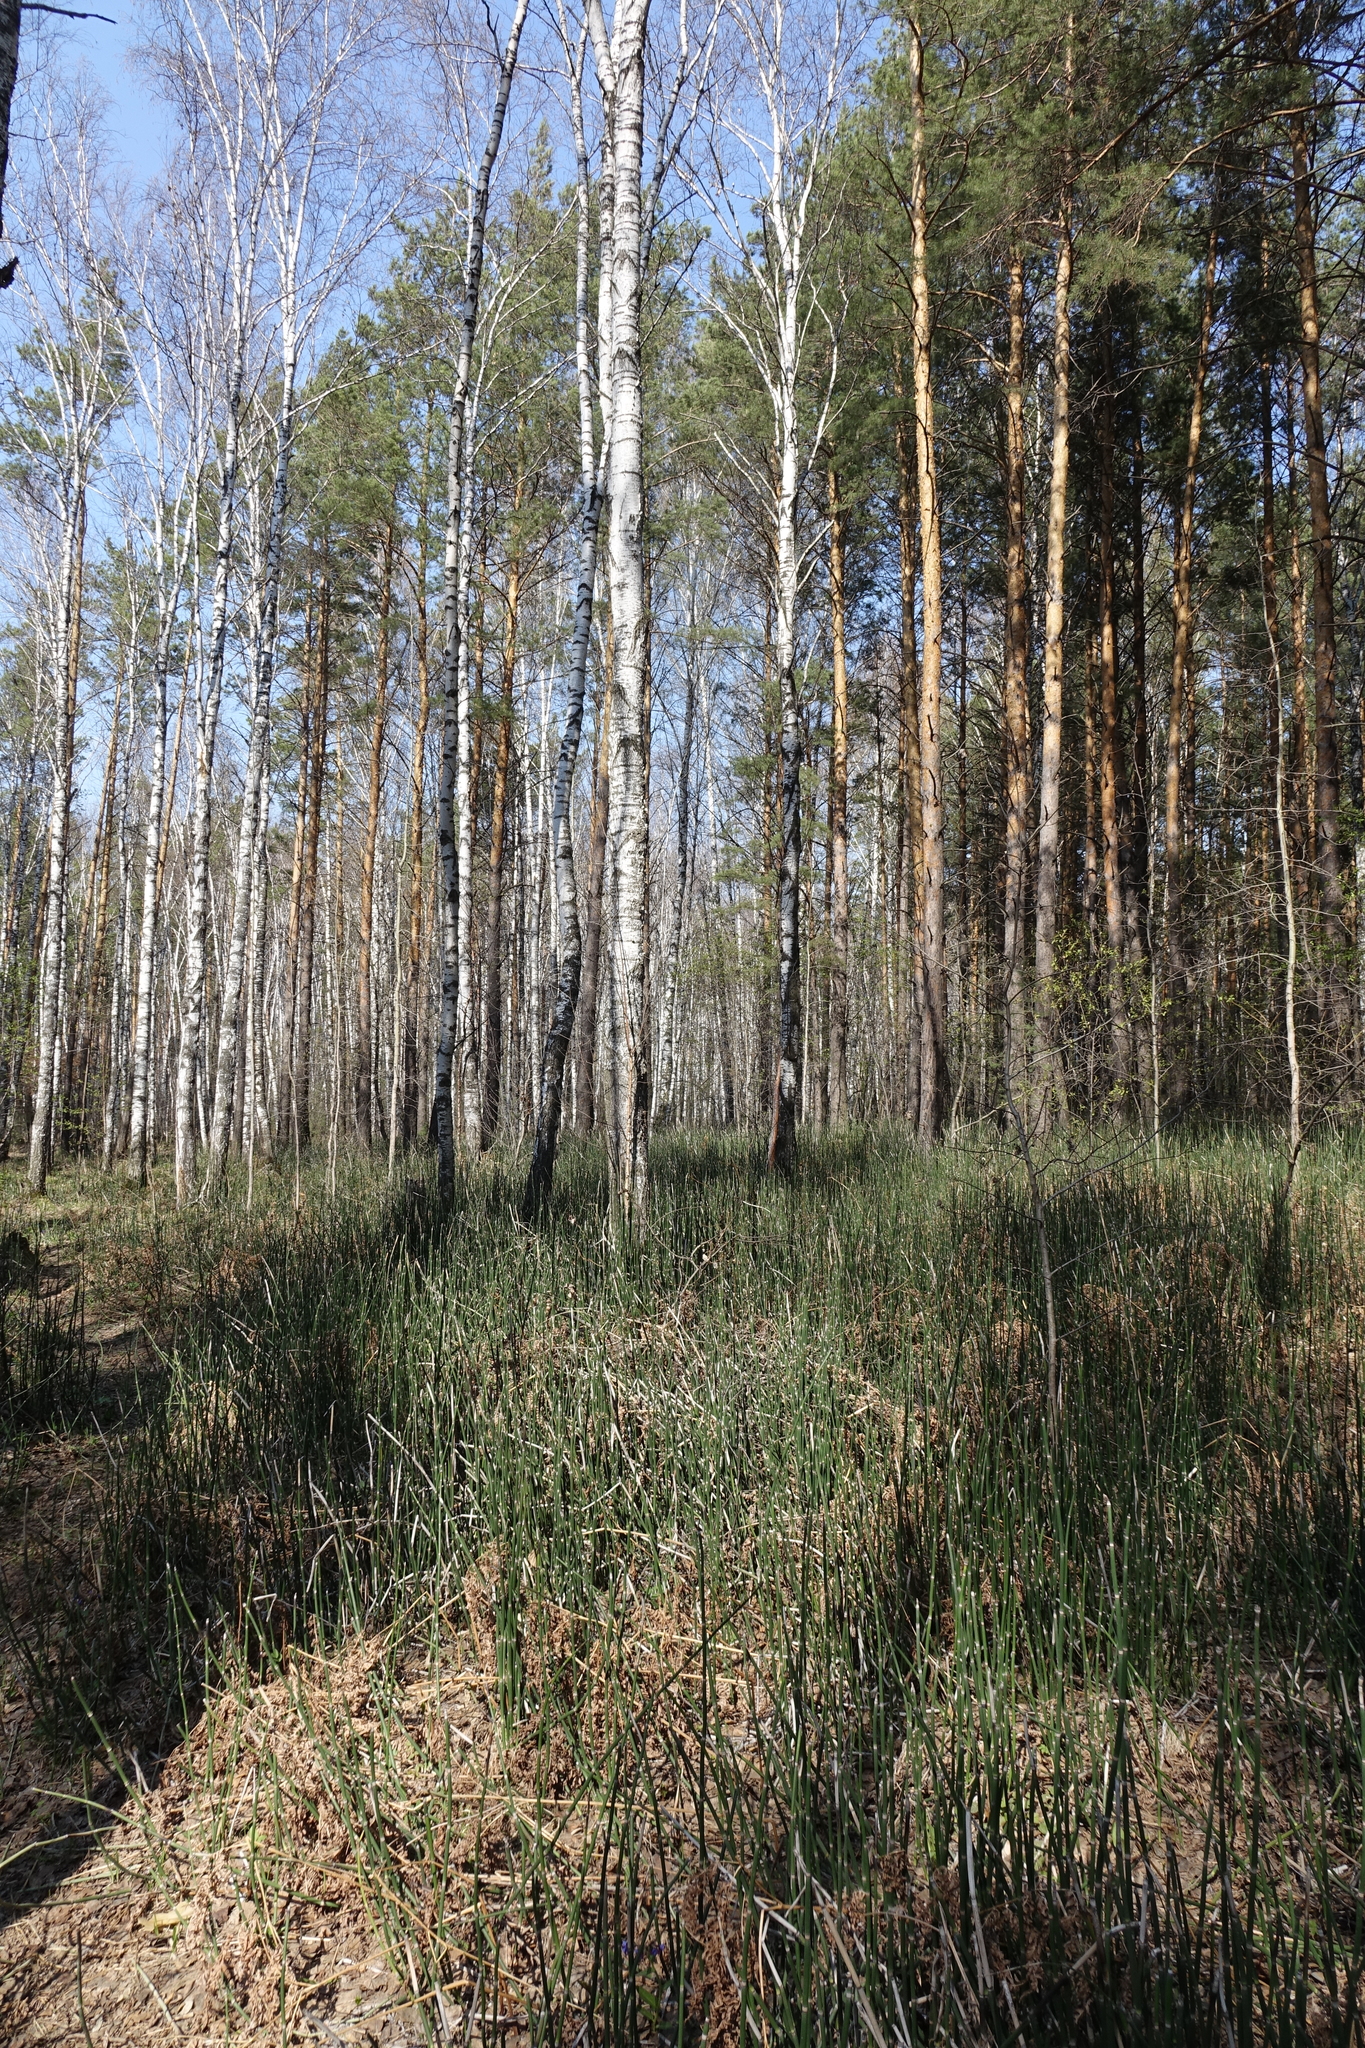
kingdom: Plantae
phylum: Tracheophyta
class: Polypodiopsida
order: Equisetales
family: Equisetaceae
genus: Equisetum
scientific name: Equisetum hyemale
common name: Rough horsetail
